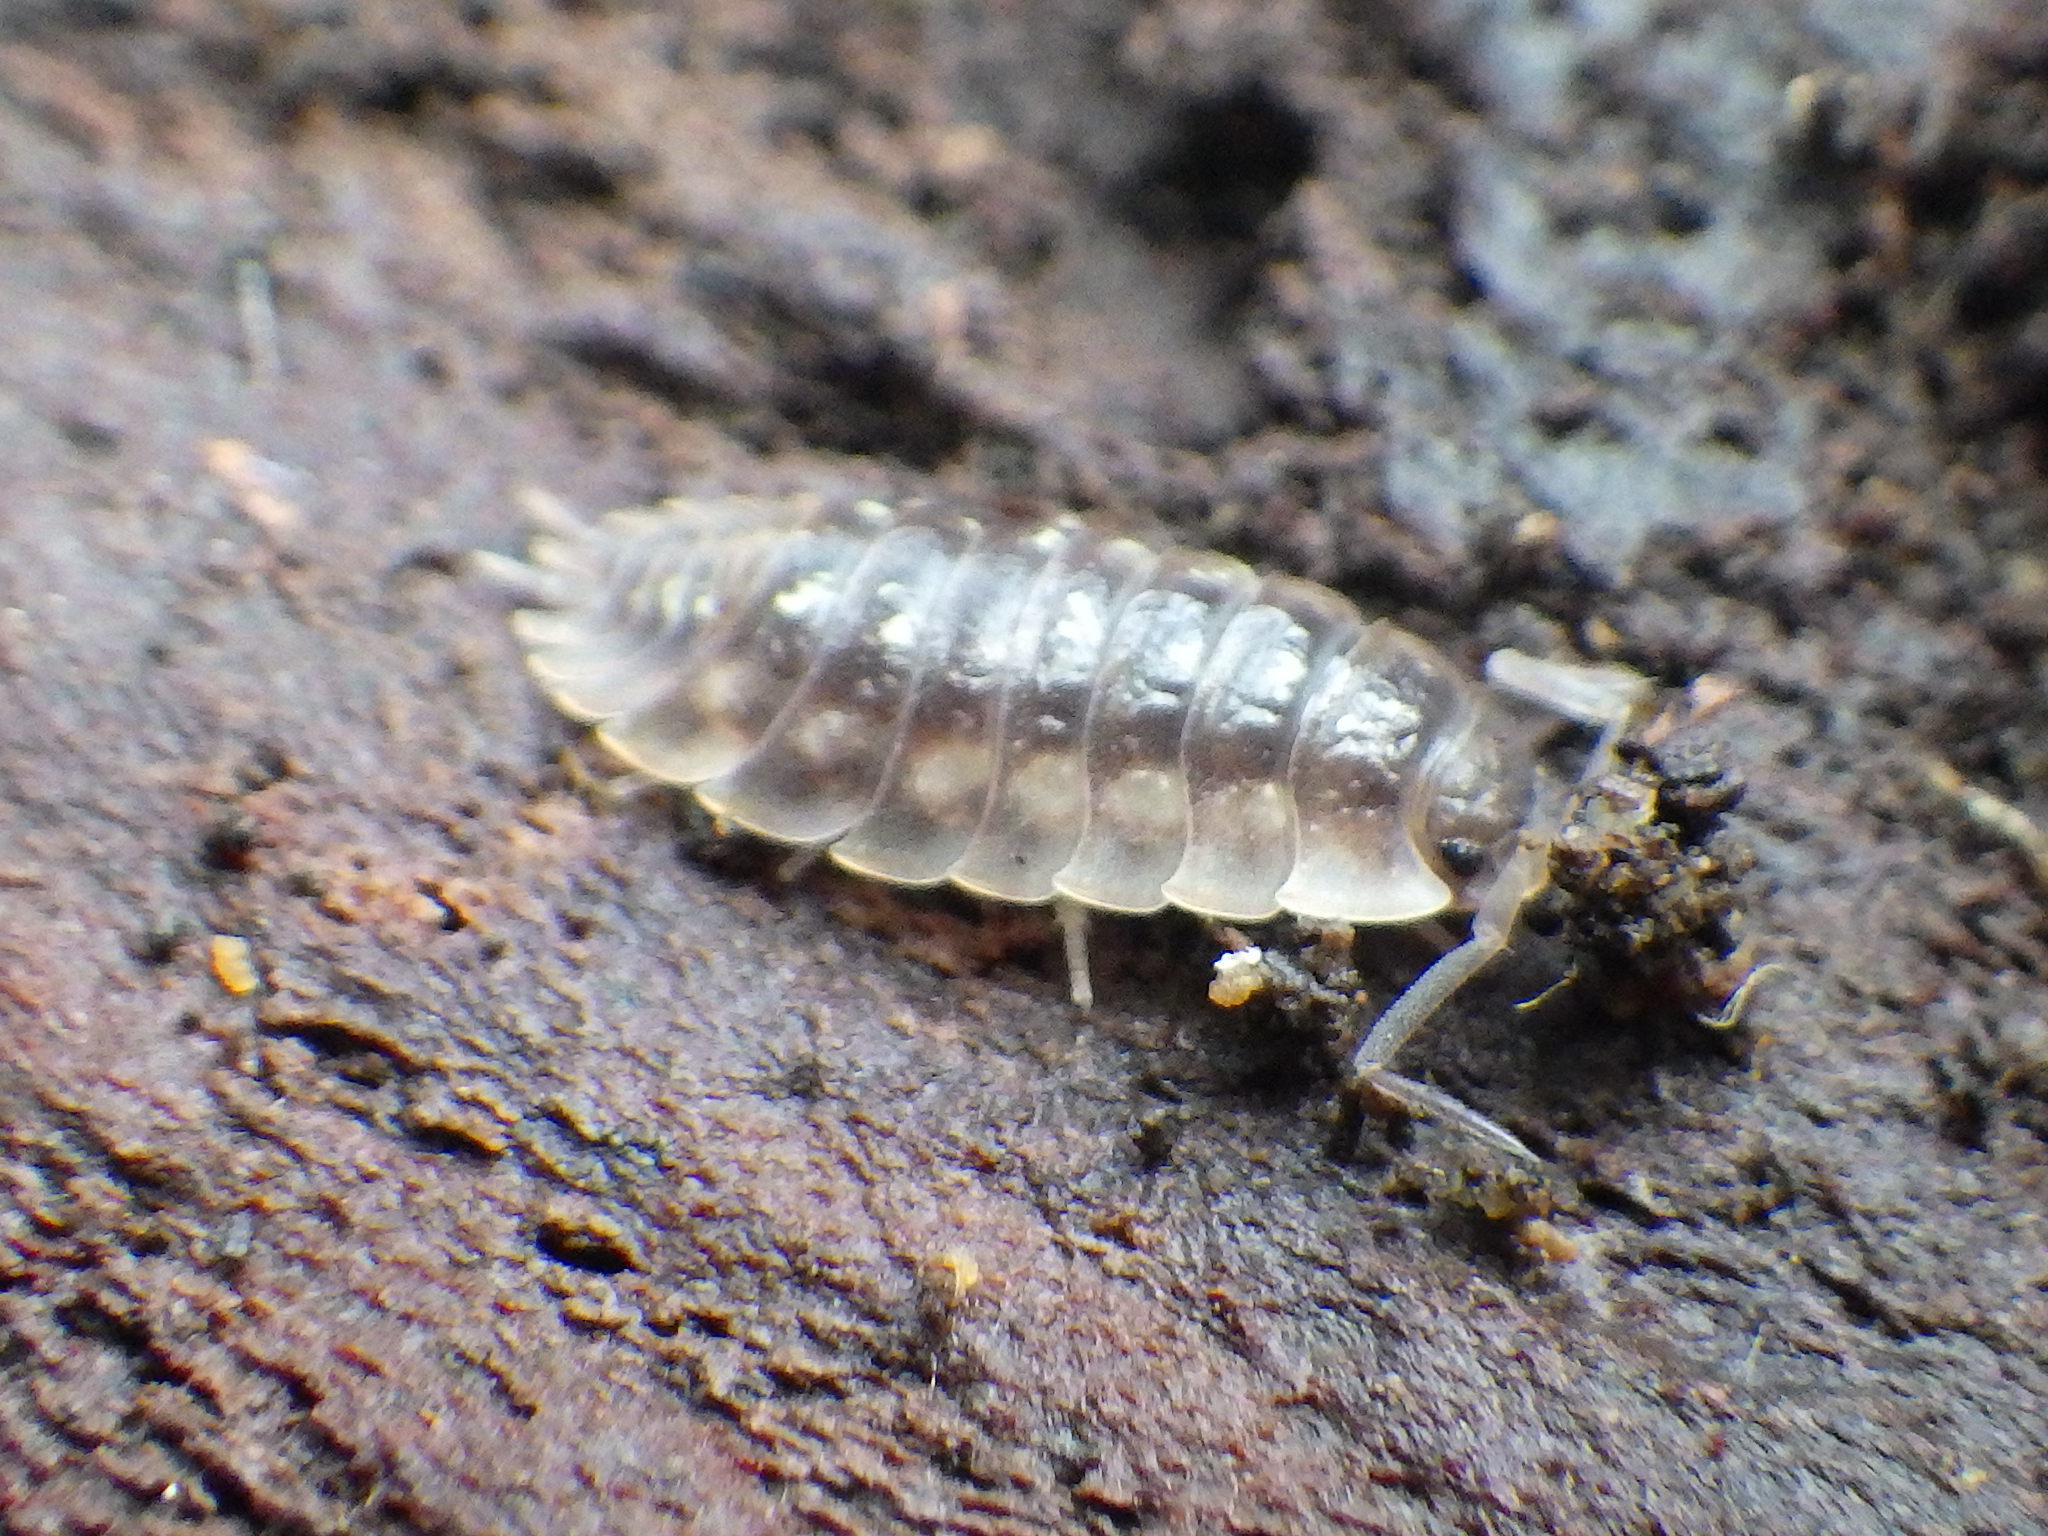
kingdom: Animalia
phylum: Arthropoda
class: Malacostraca
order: Isopoda
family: Oniscidae
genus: Oniscus
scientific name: Oniscus asellus
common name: Common shiny woodlouse
